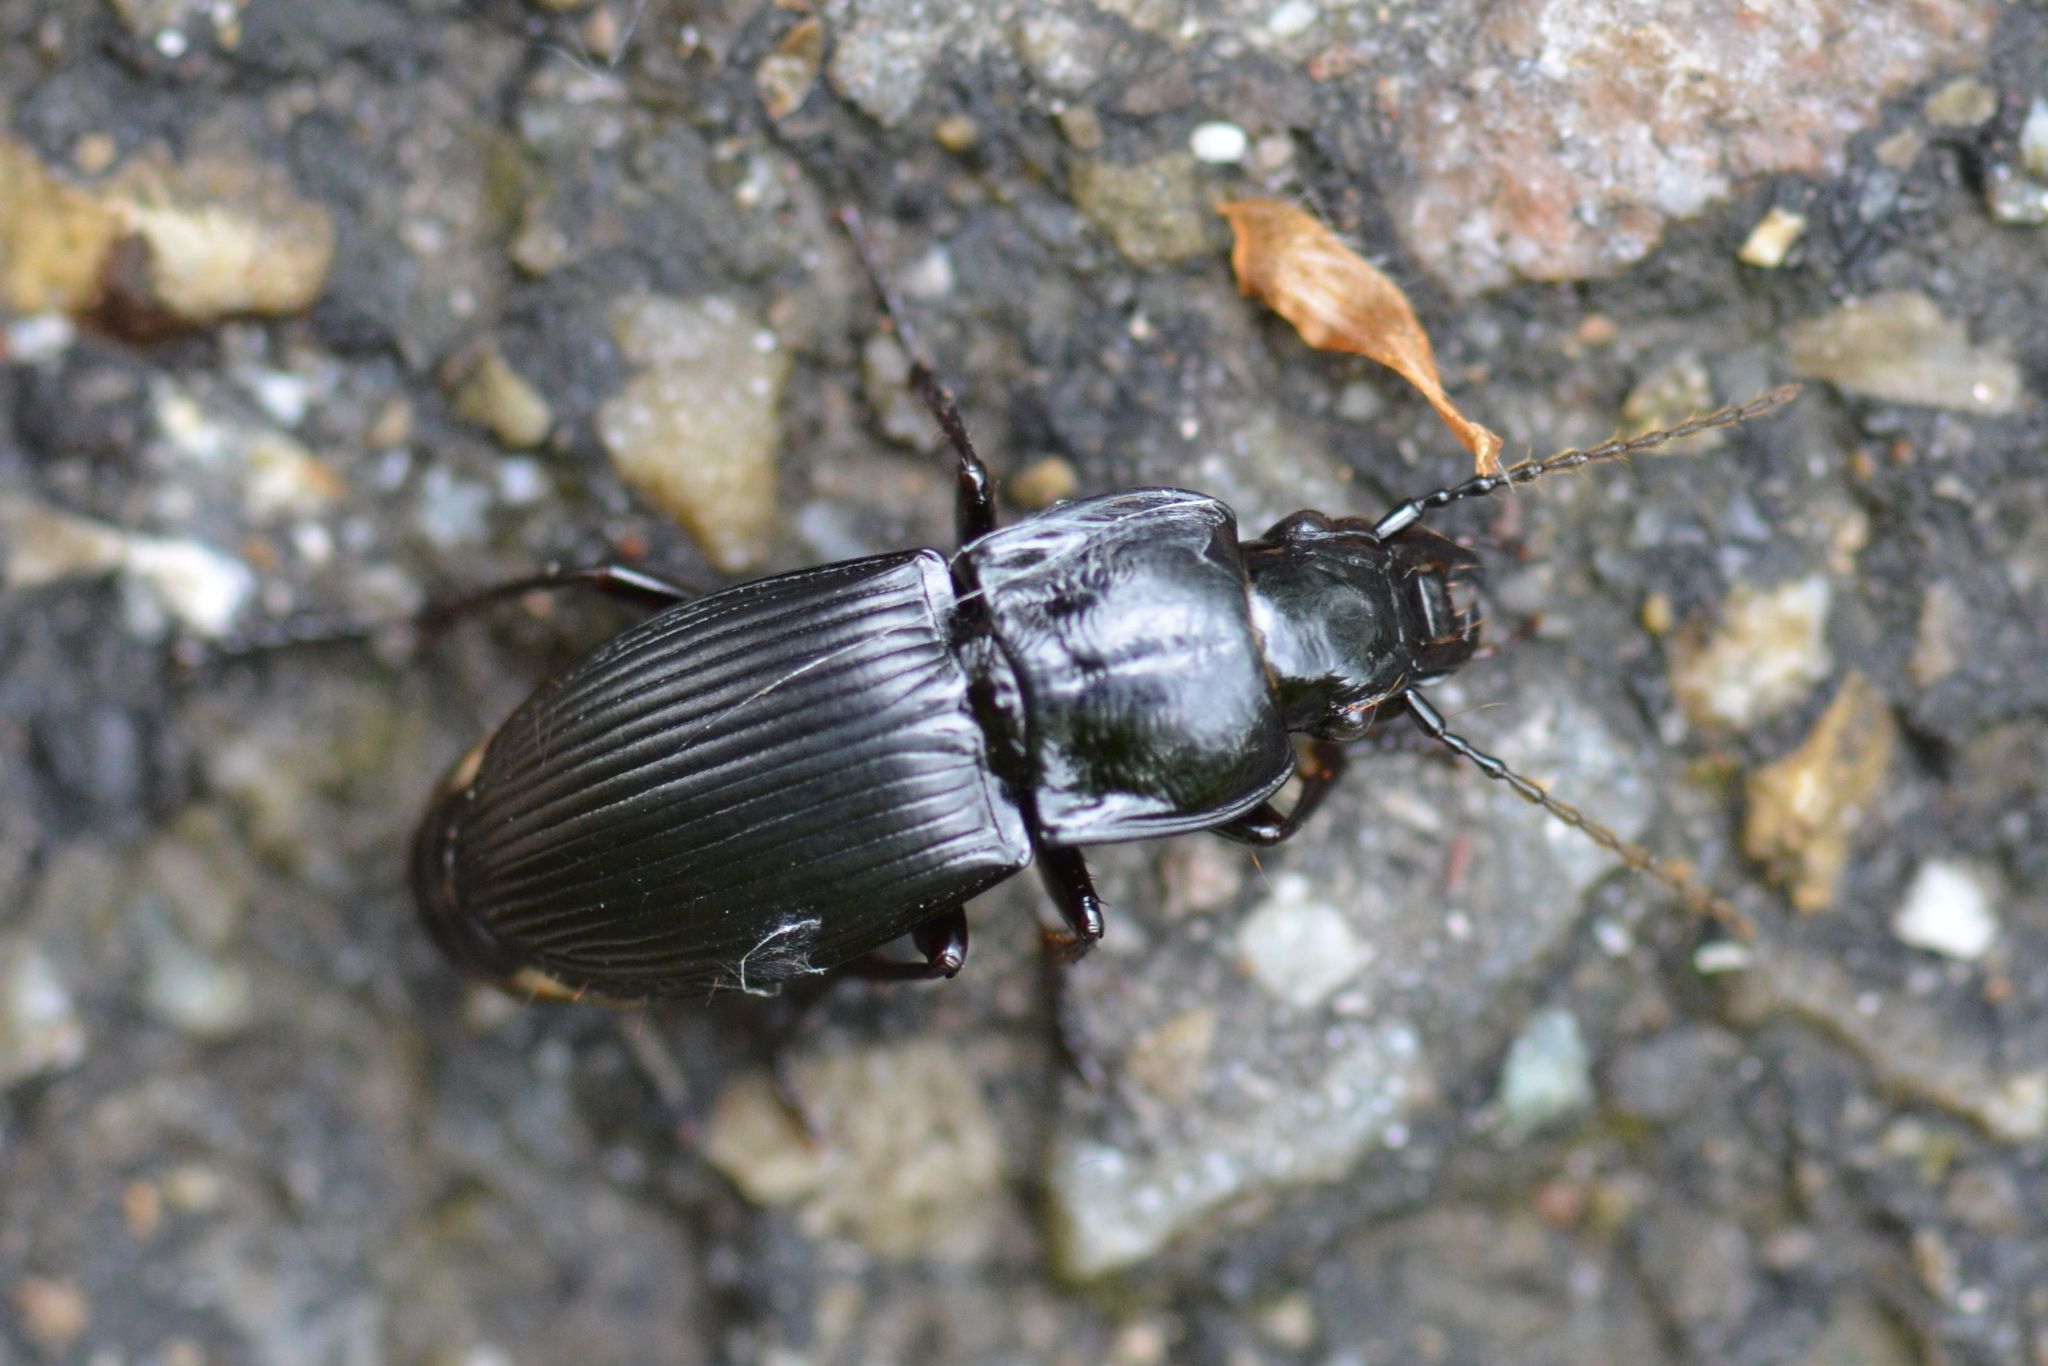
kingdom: Animalia
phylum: Arthropoda
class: Insecta
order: Coleoptera
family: Carabidae
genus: Abax
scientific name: Abax parallelus
